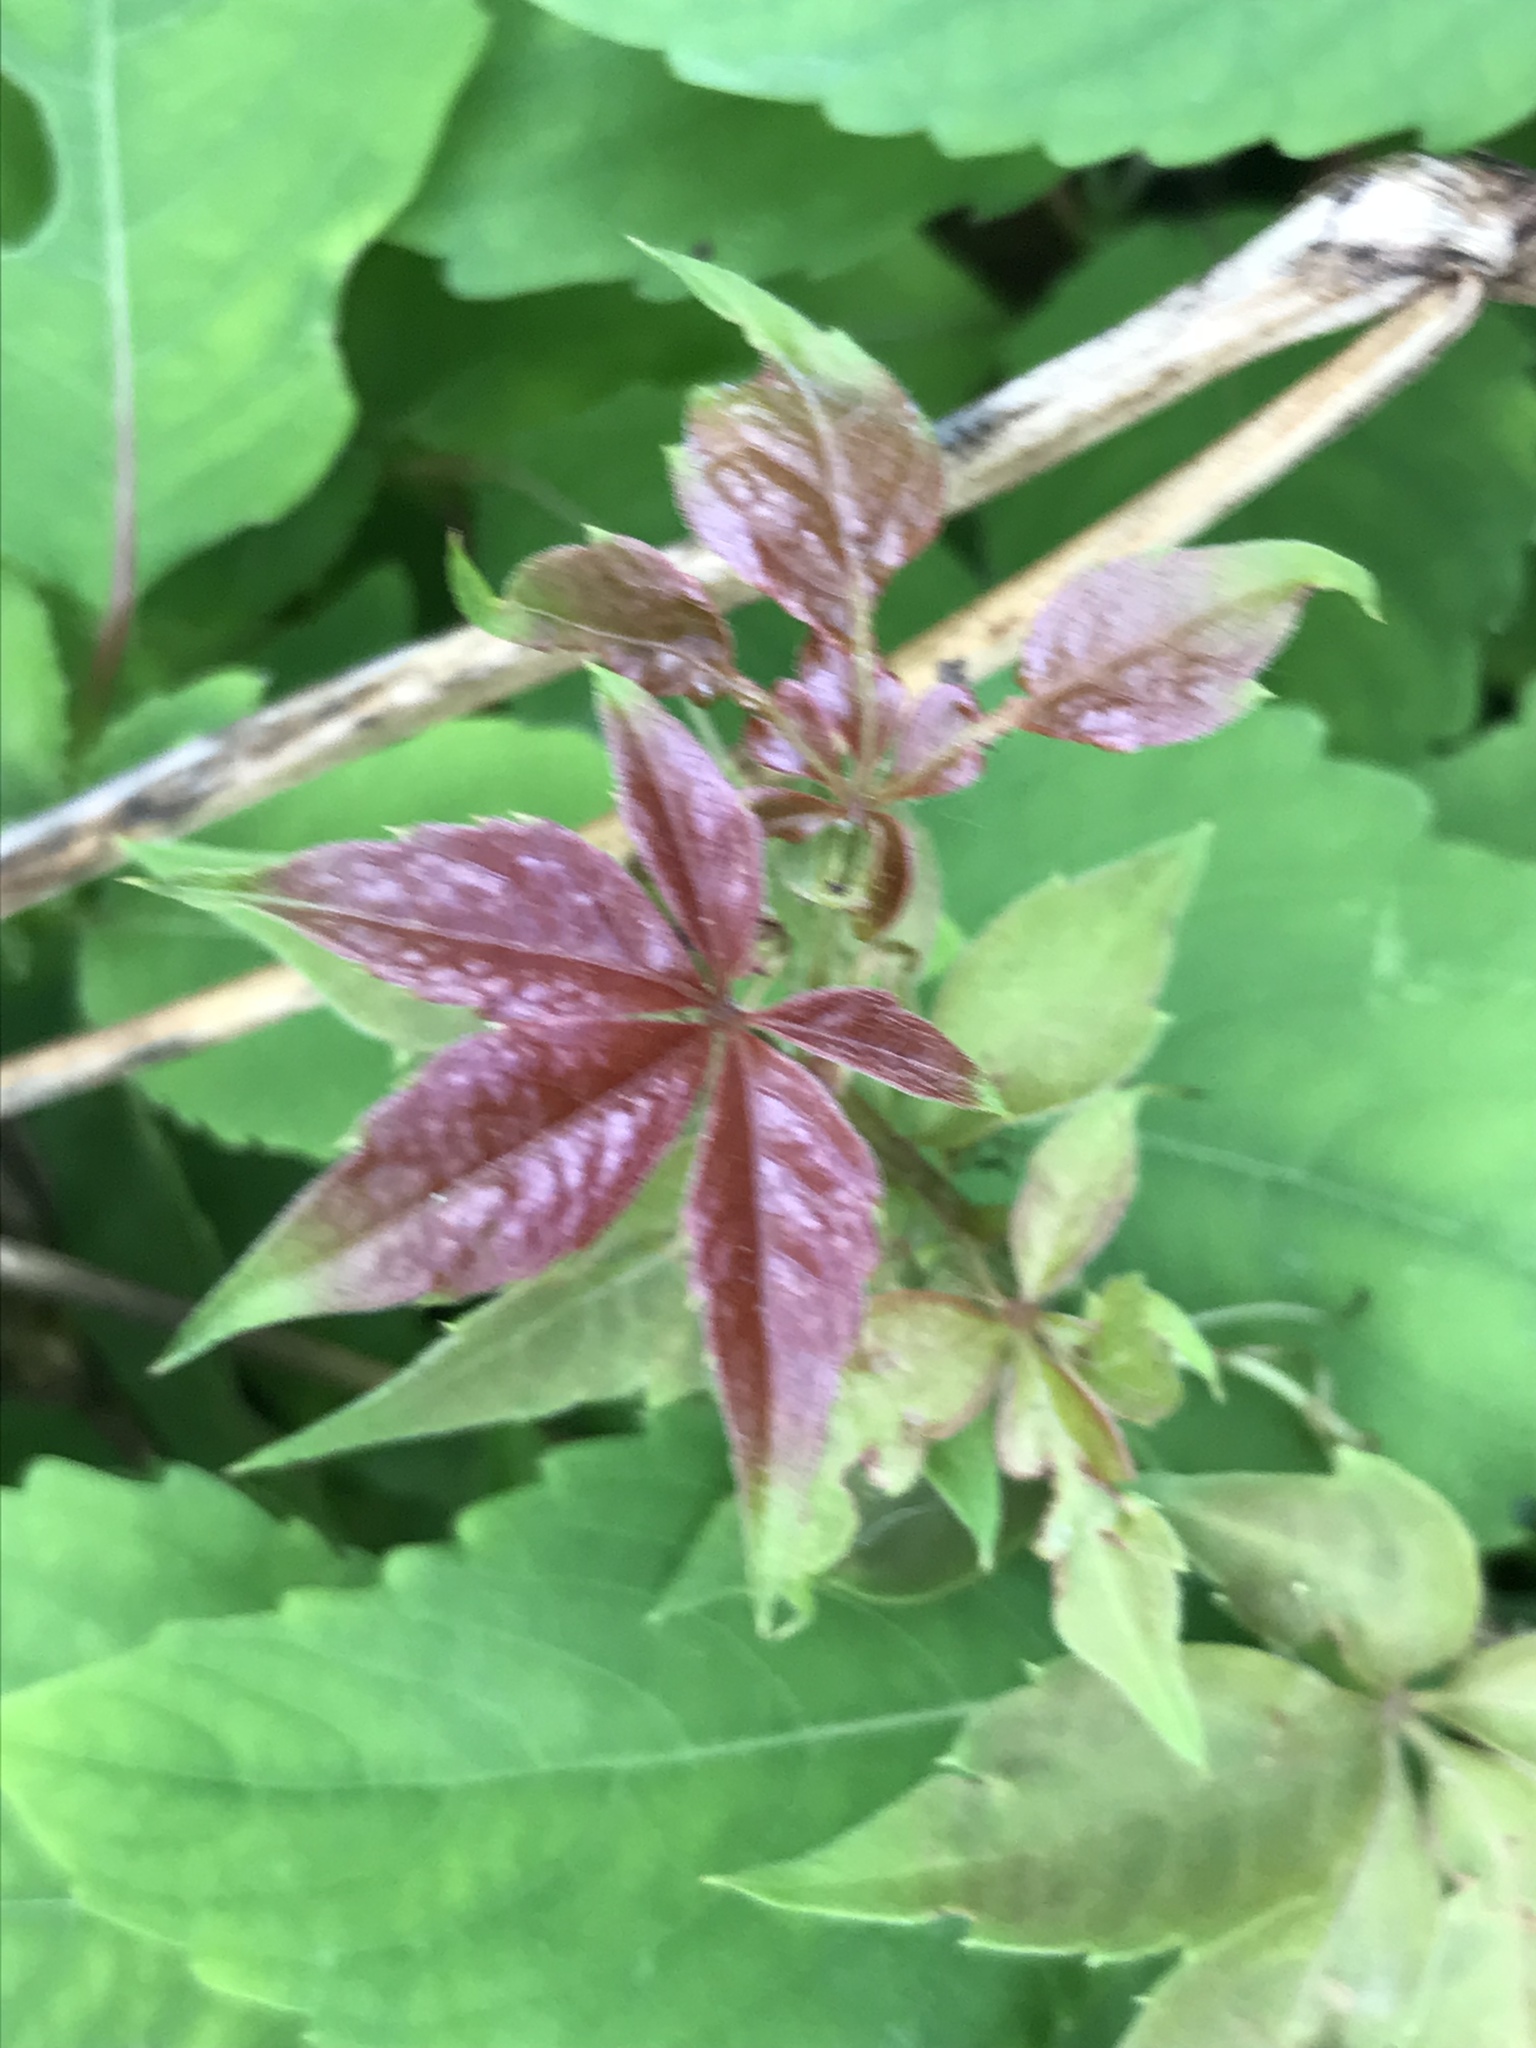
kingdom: Plantae
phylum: Tracheophyta
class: Magnoliopsida
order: Vitales
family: Vitaceae
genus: Parthenocissus
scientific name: Parthenocissus quinquefolia
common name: Virginia-creeper
